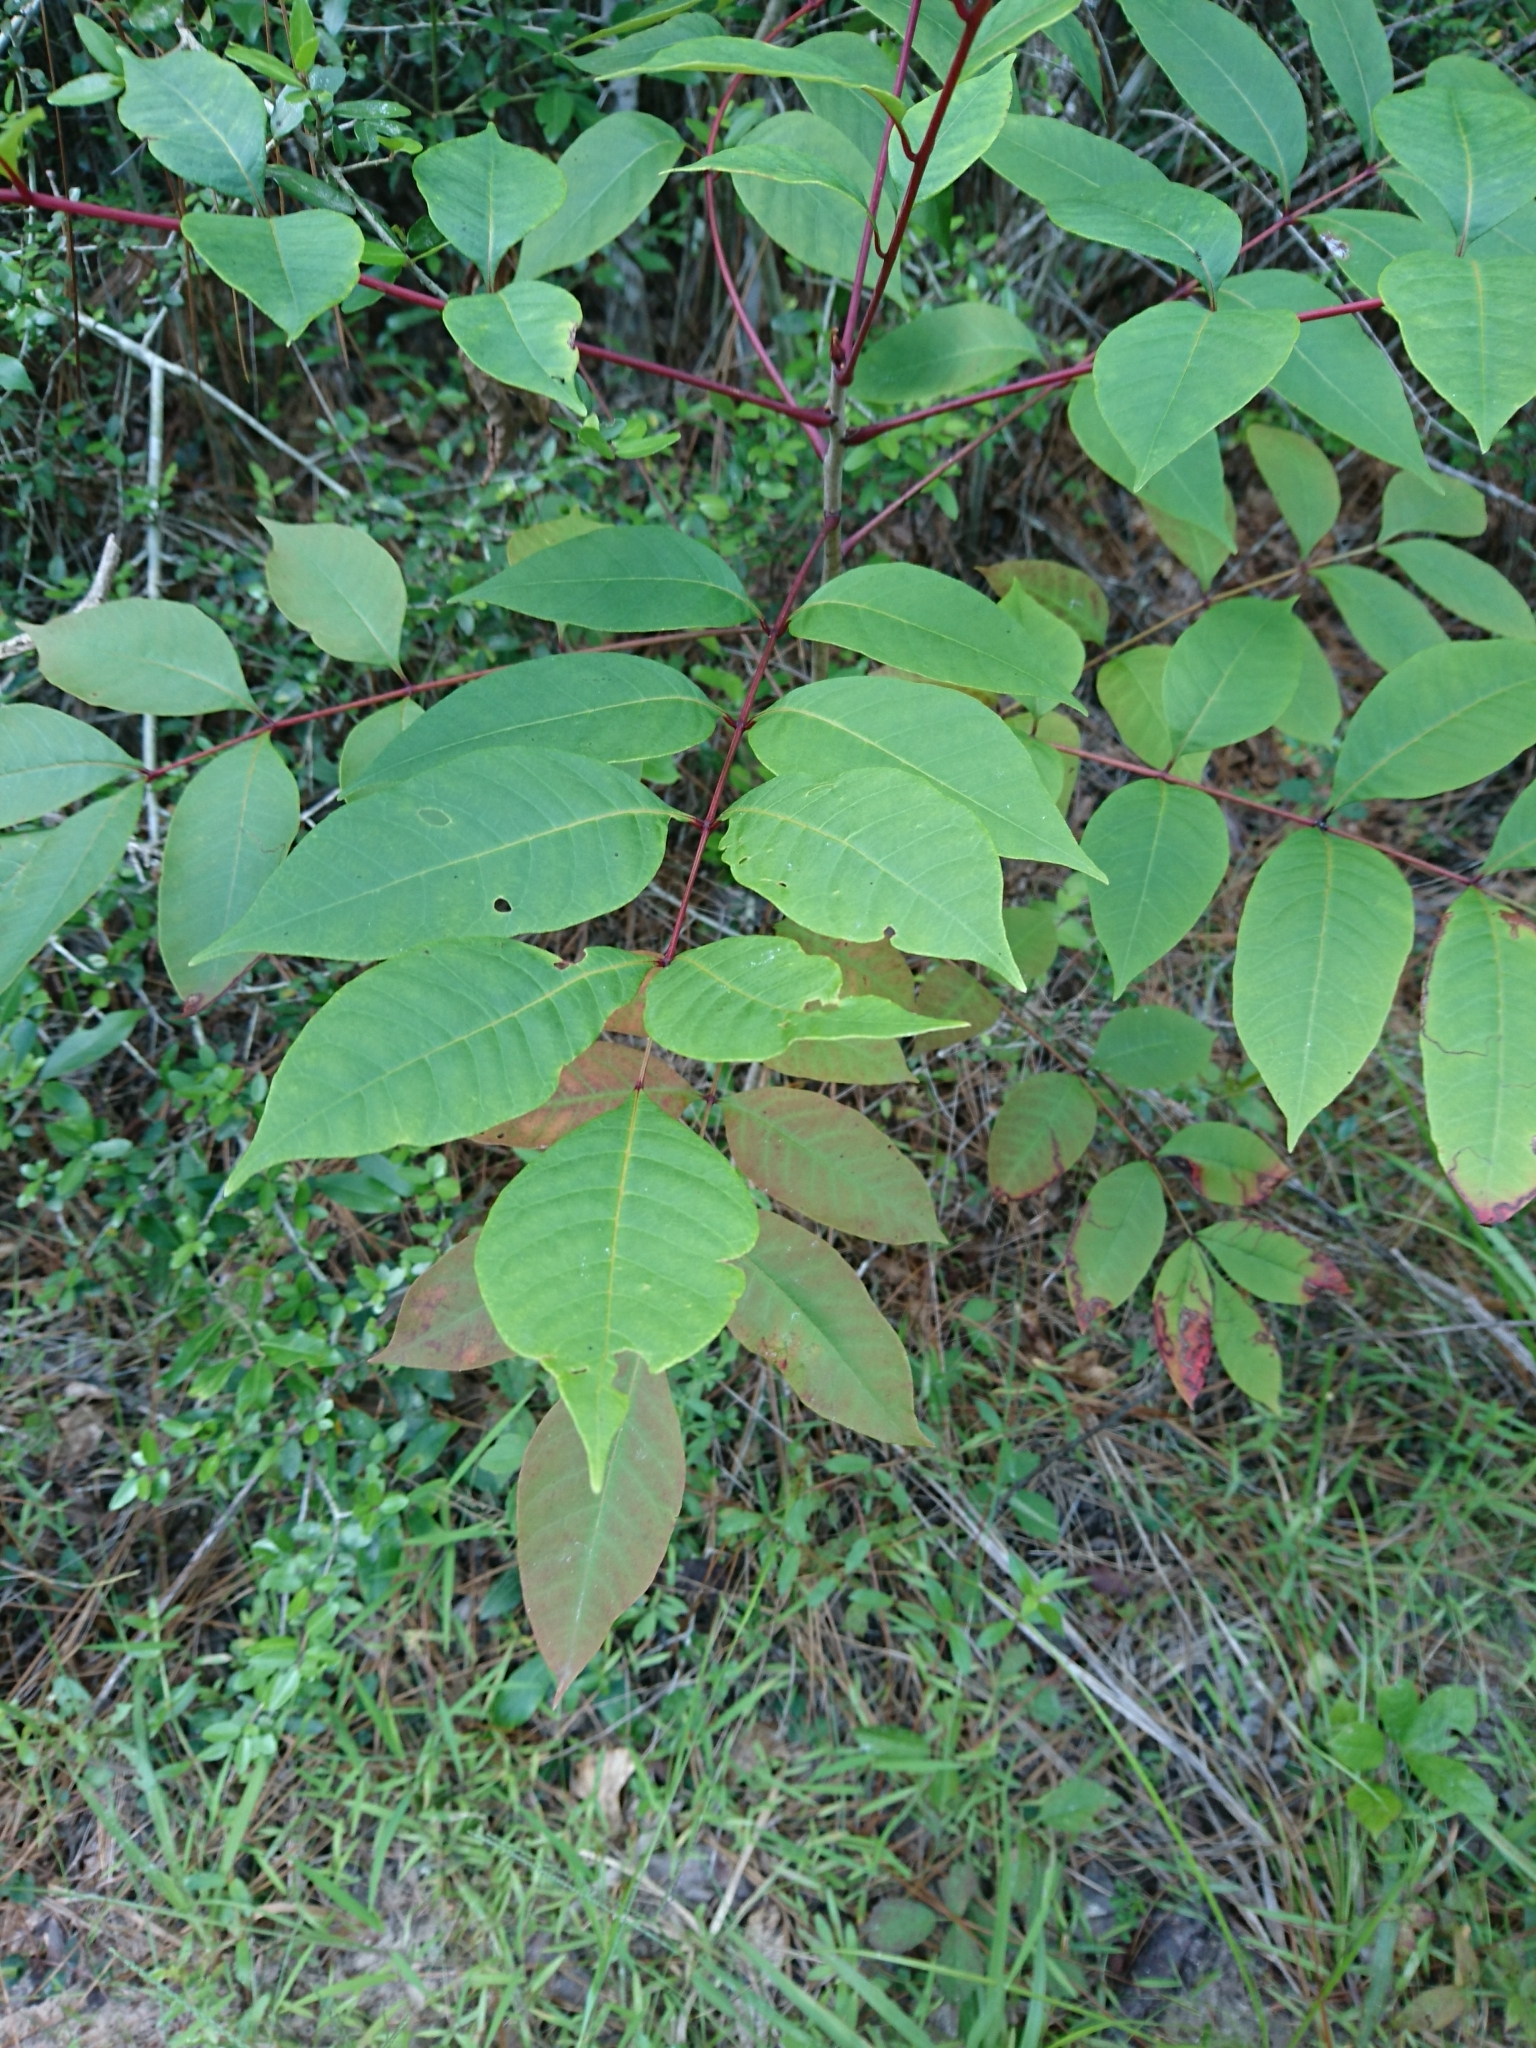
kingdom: Plantae
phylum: Tracheophyta
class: Magnoliopsida
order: Sapindales
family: Anacardiaceae
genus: Toxicodendron
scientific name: Toxicodendron vernix
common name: Poison sumac
